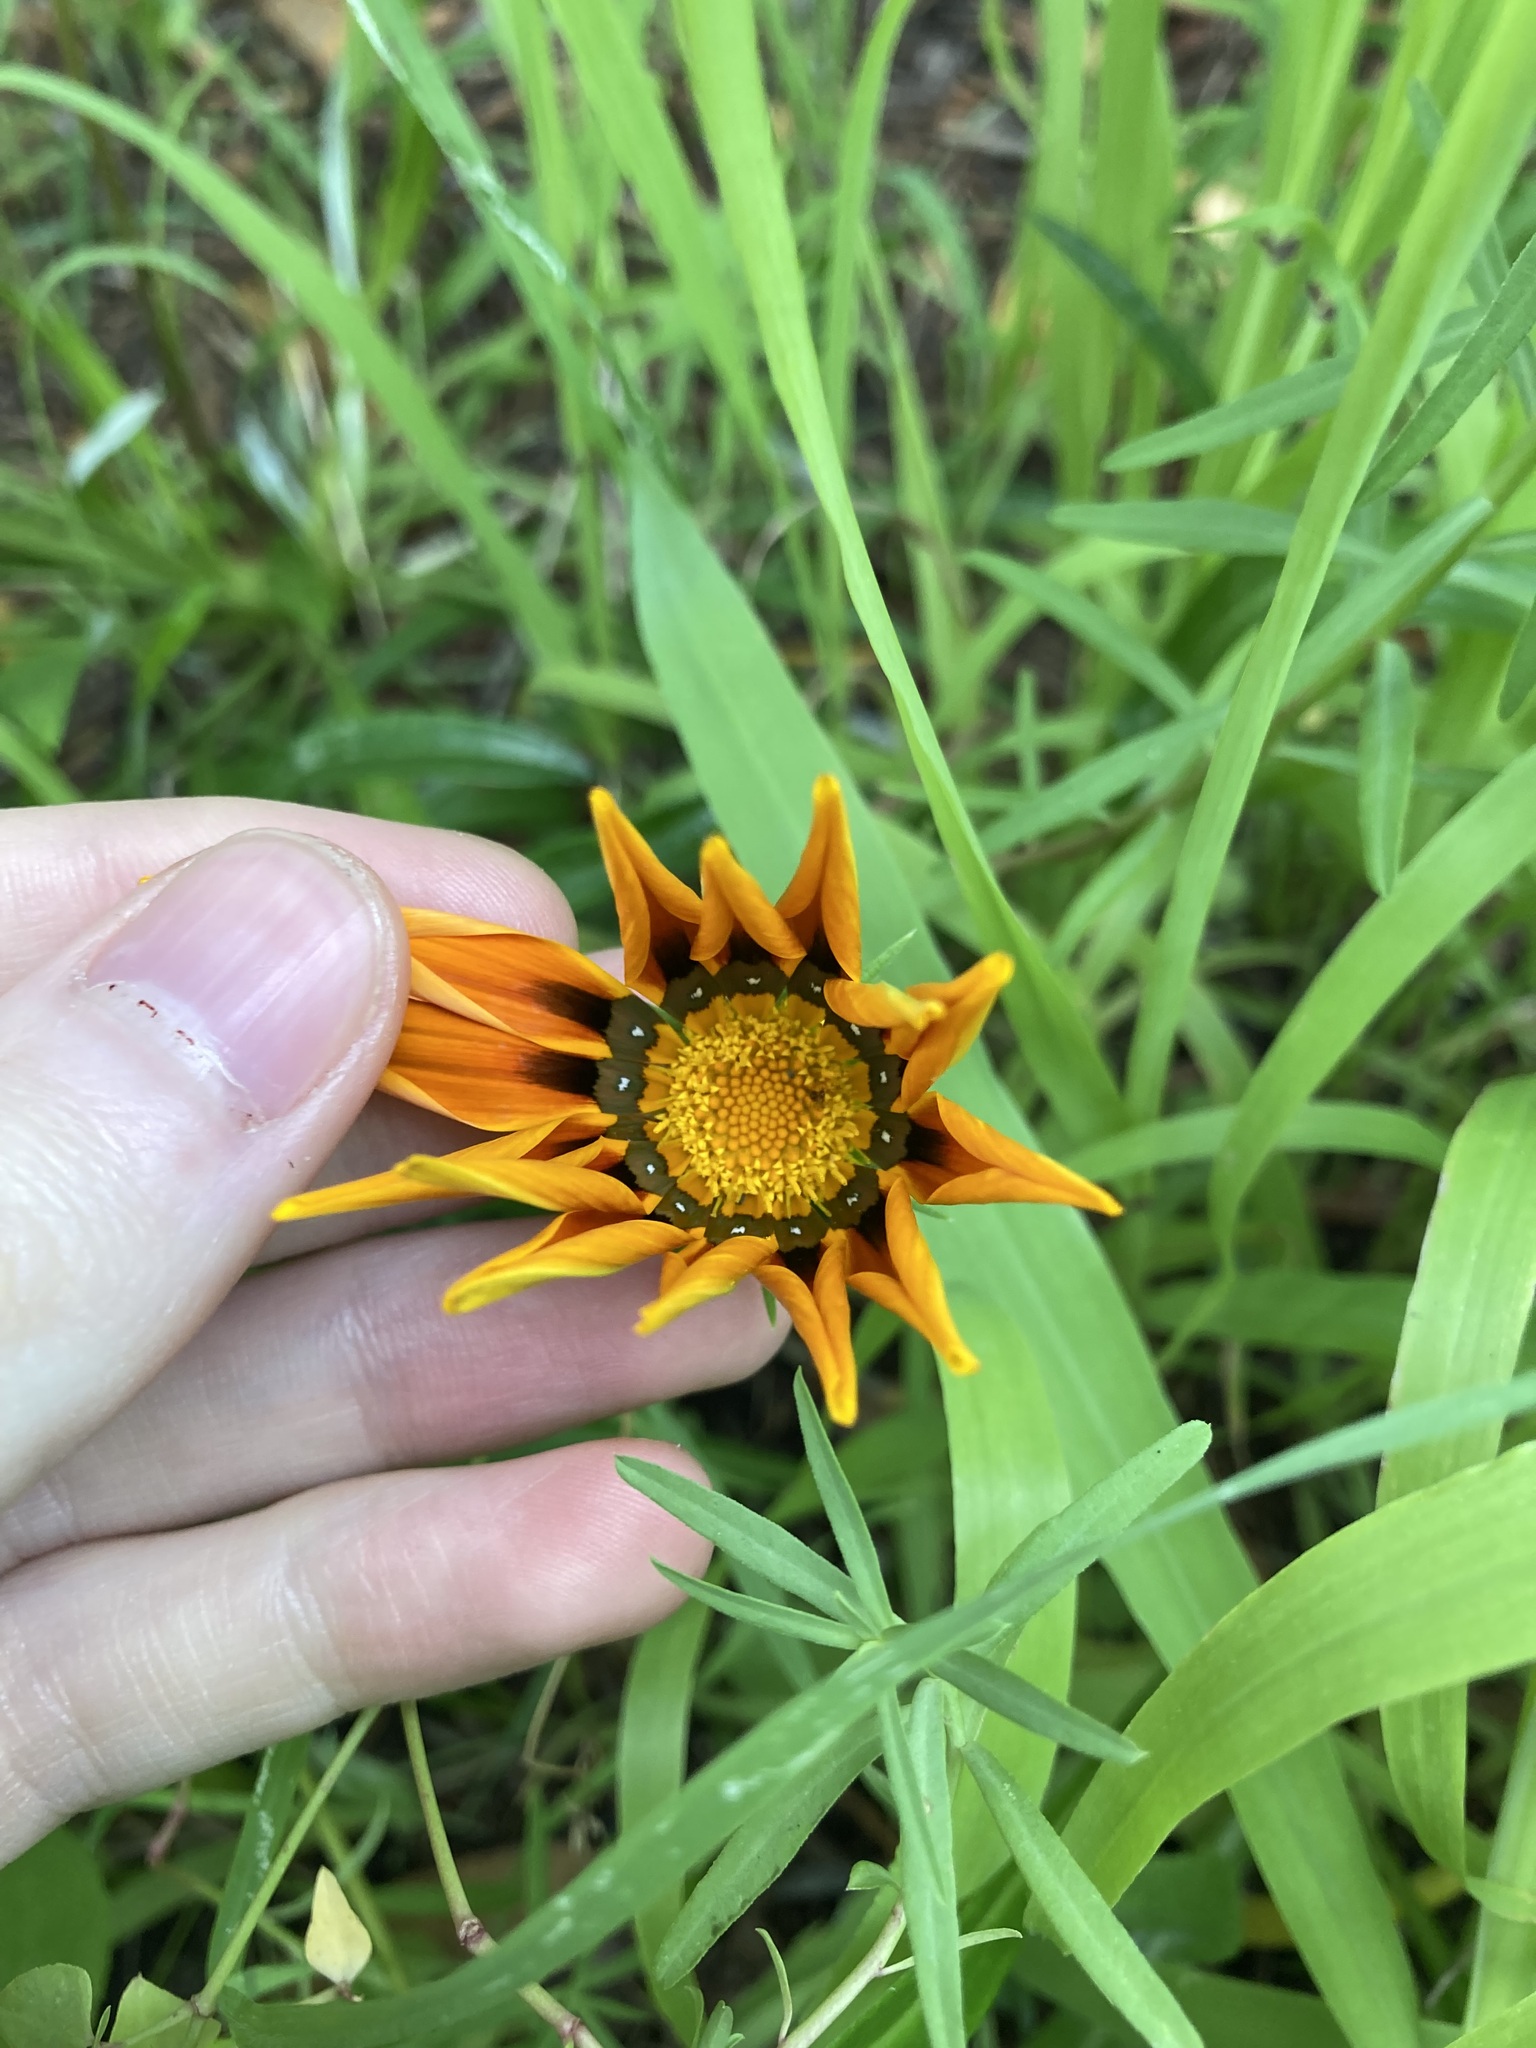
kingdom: Plantae
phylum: Tracheophyta
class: Magnoliopsida
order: Asterales
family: Asteraceae
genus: Gazania
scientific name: Gazania splendens
